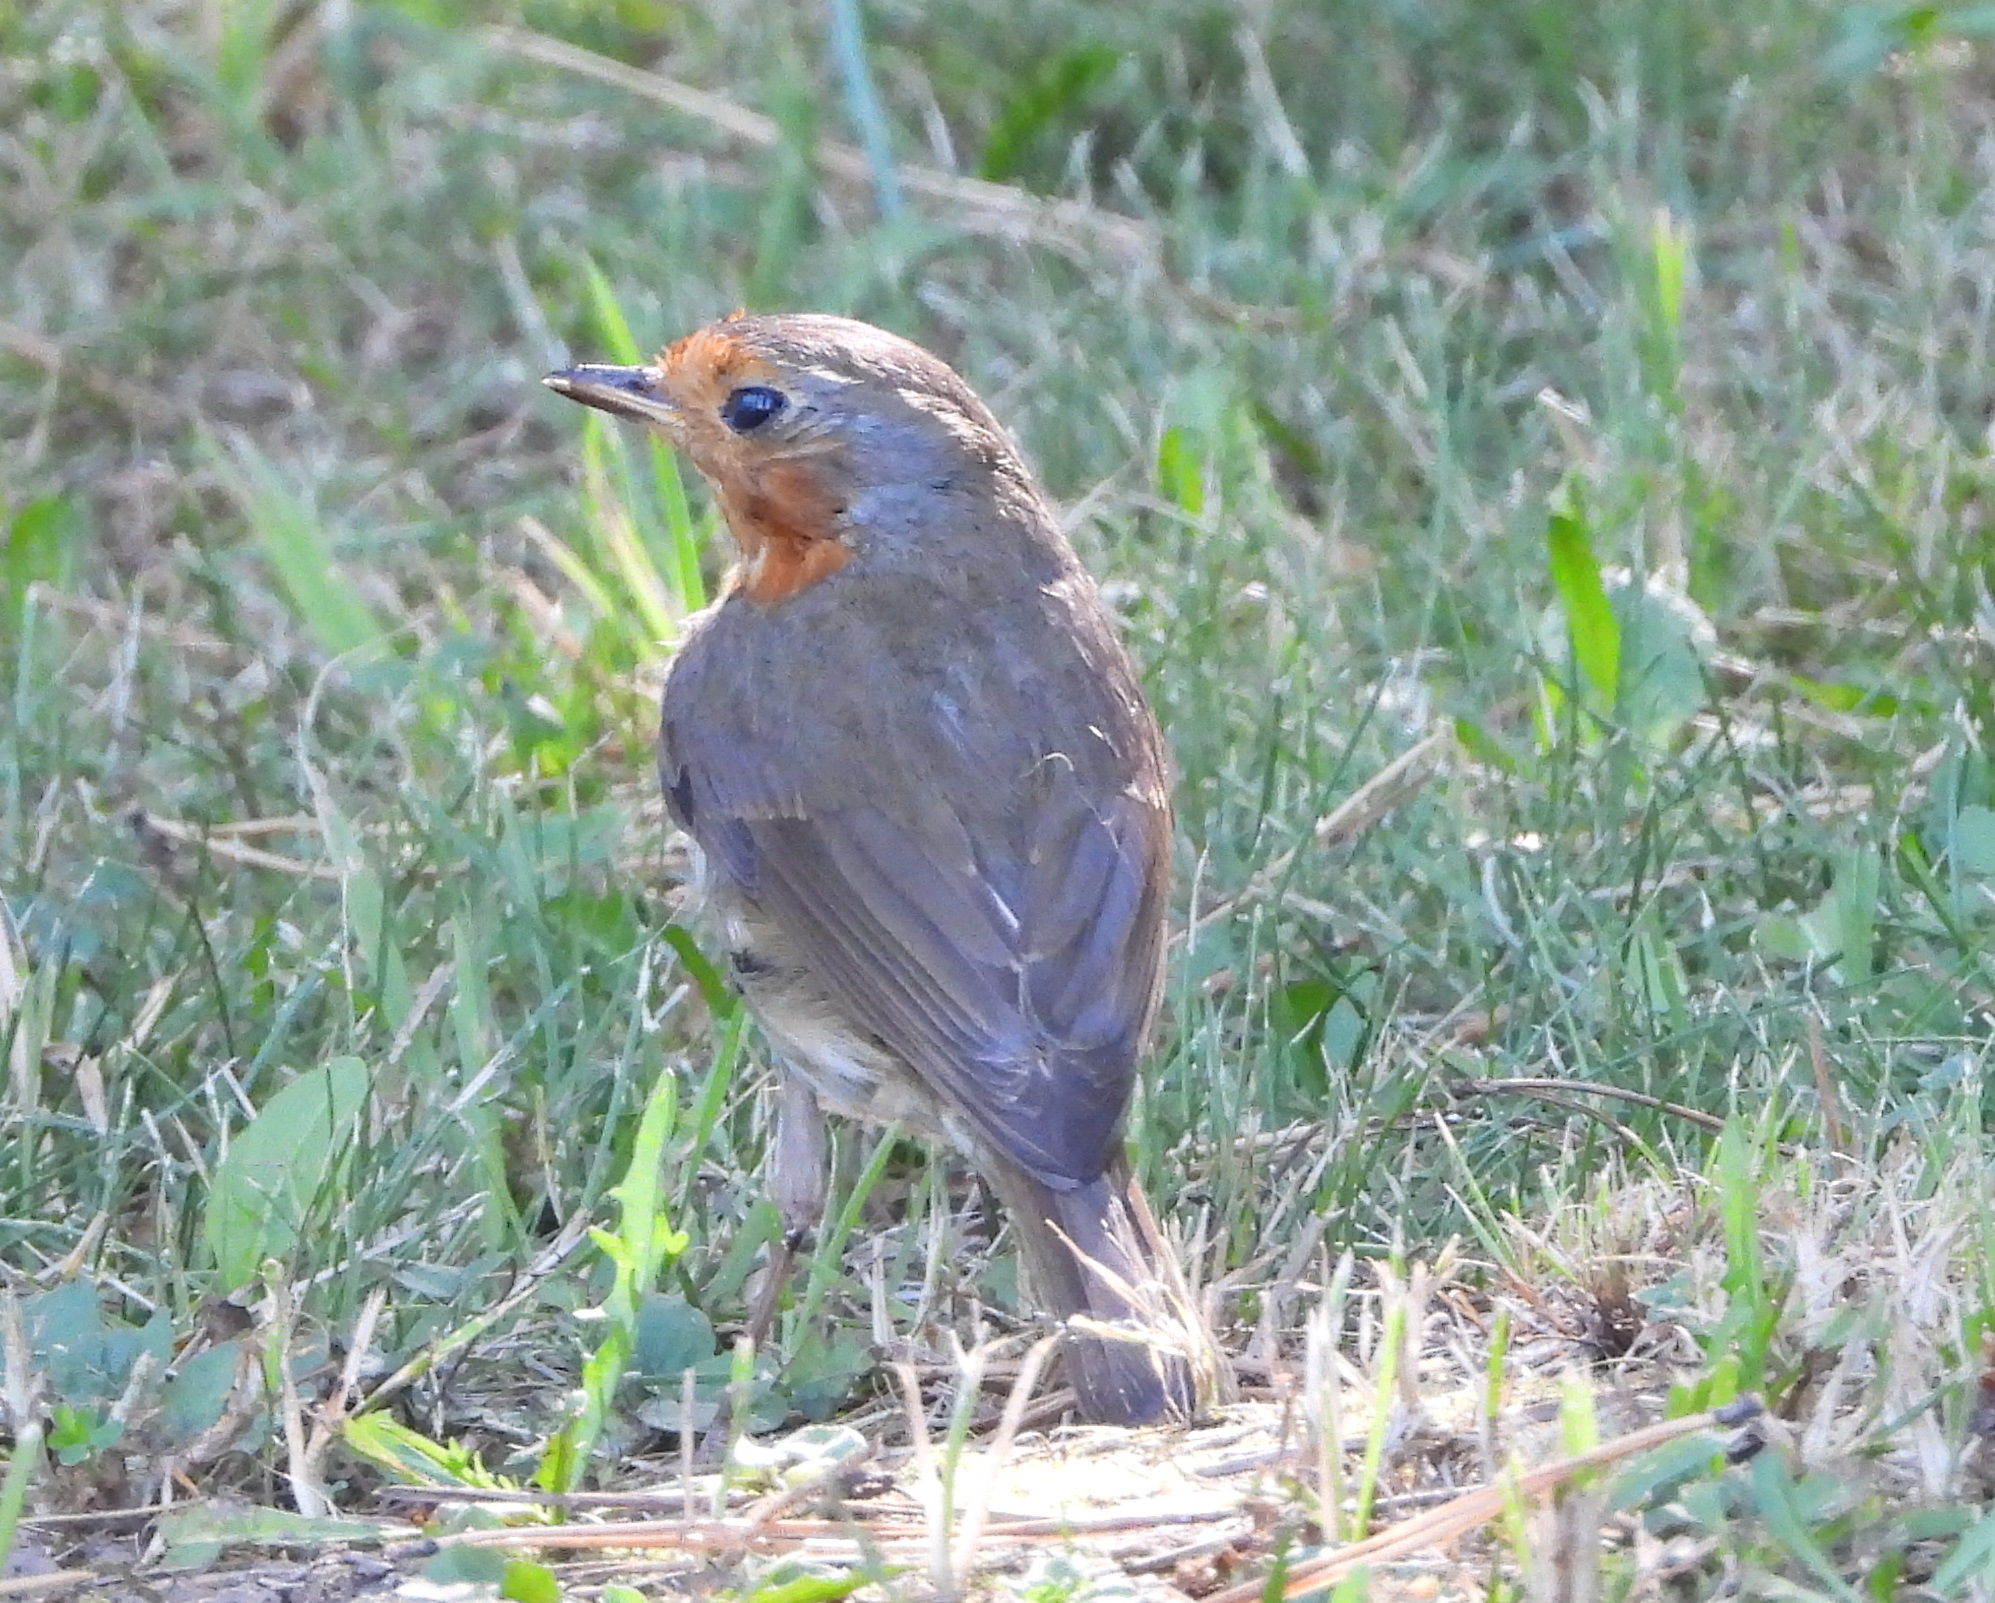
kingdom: Animalia
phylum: Chordata
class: Aves
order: Passeriformes
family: Muscicapidae
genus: Erithacus
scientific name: Erithacus rubecula
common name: European robin
